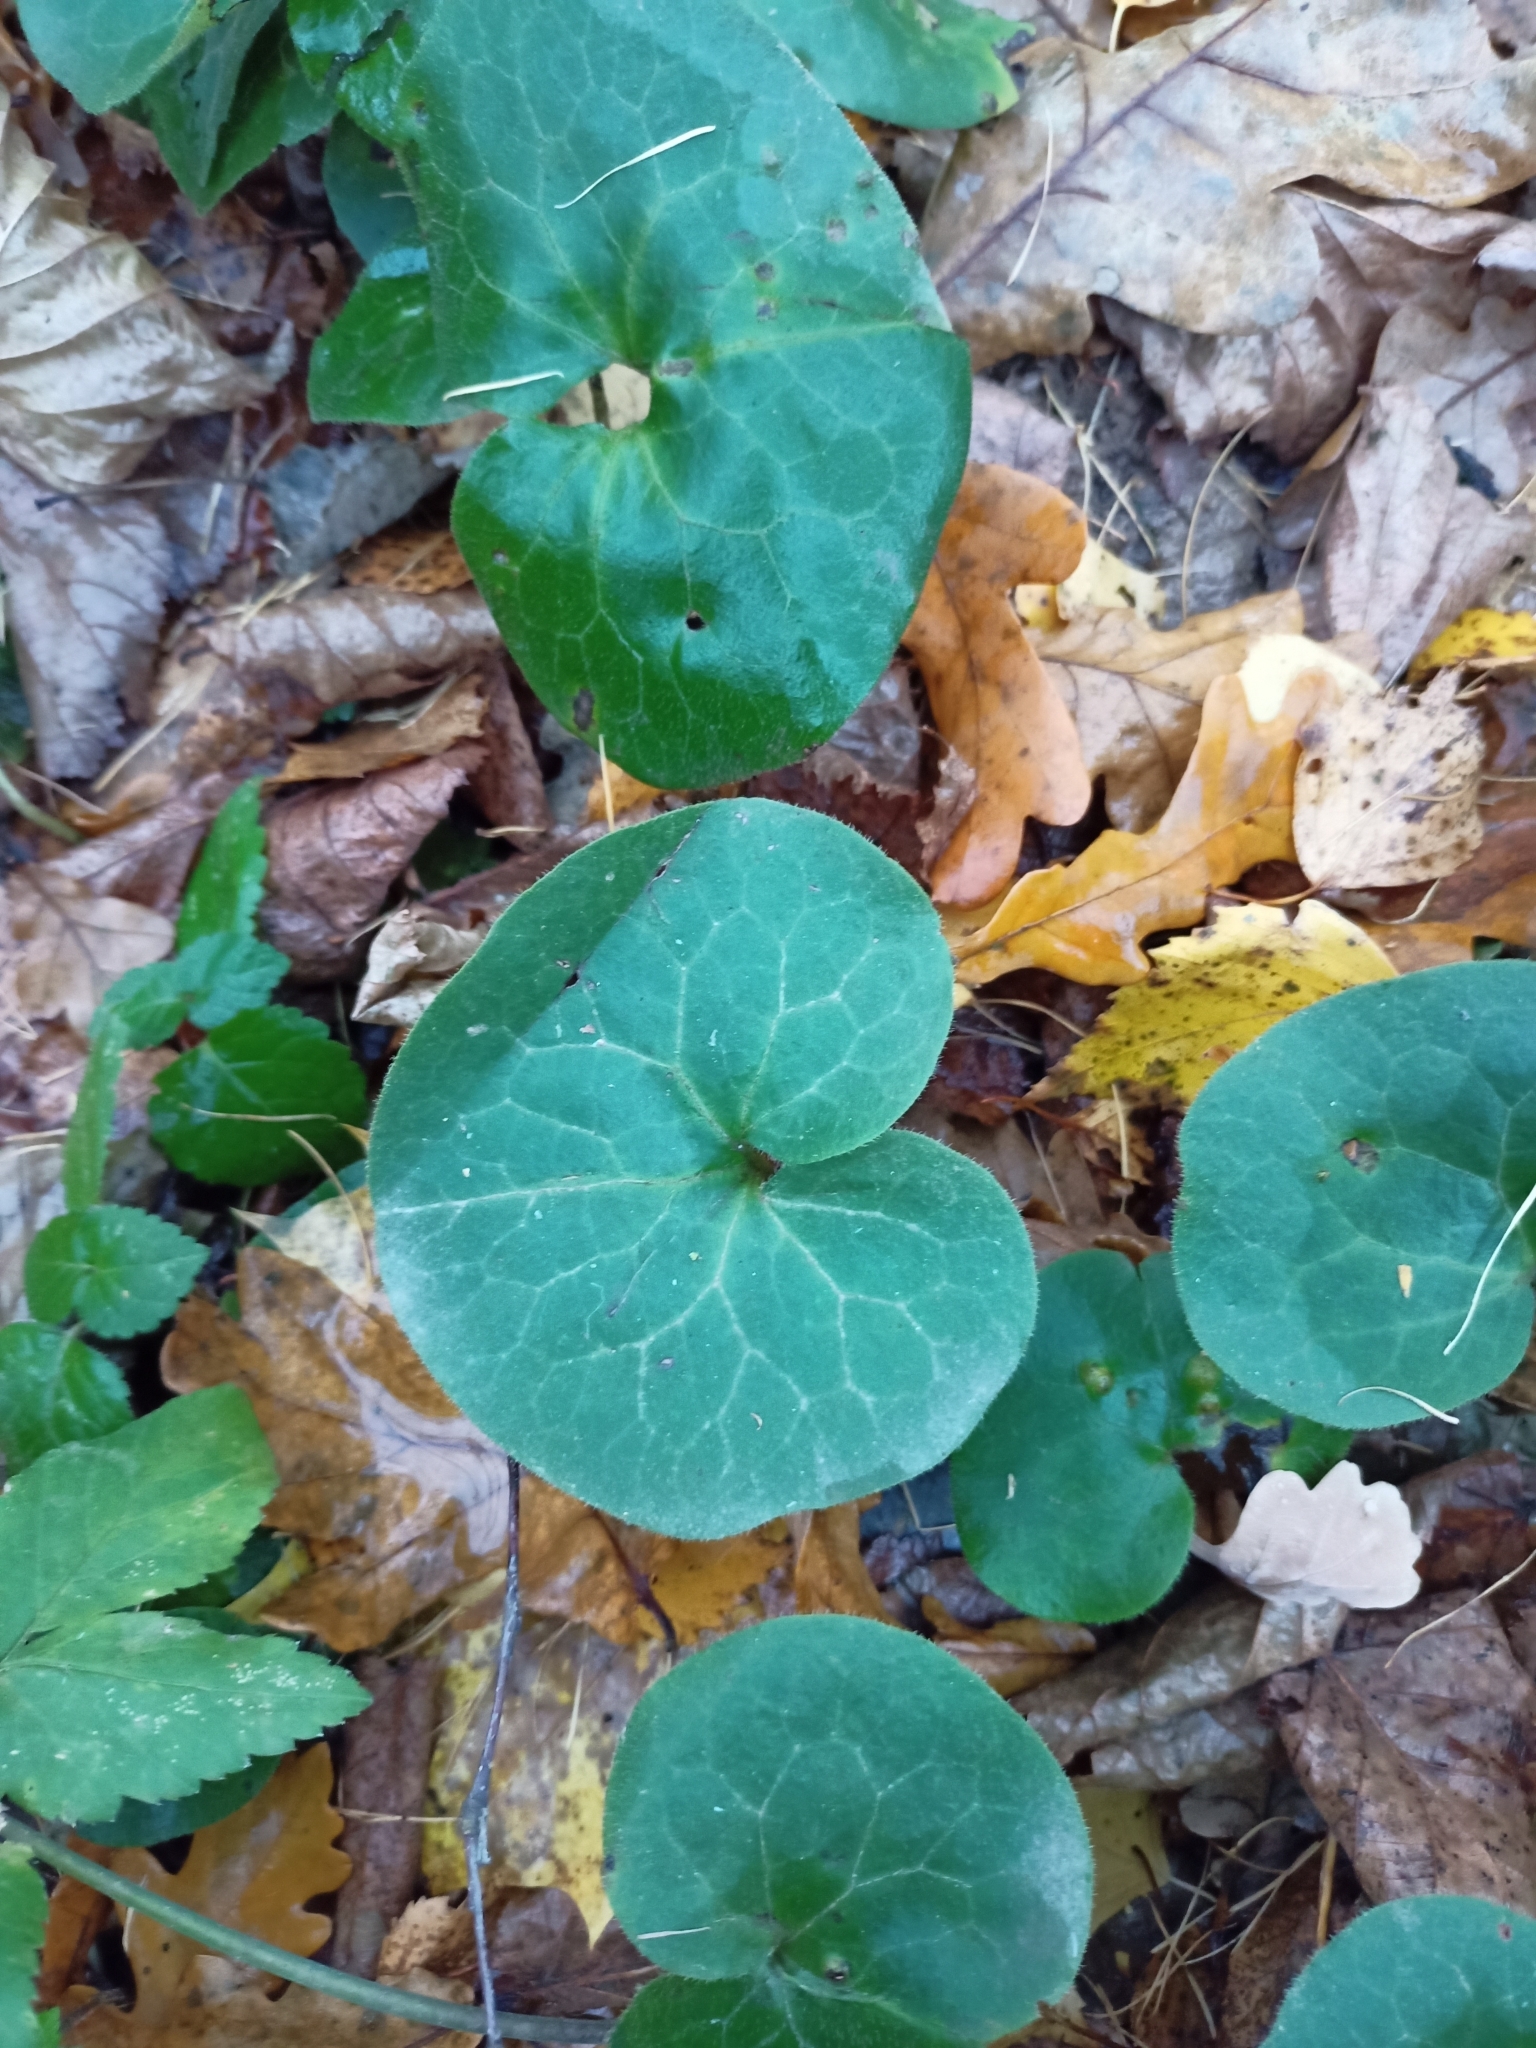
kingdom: Plantae
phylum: Tracheophyta
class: Magnoliopsida
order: Piperales
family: Aristolochiaceae
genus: Asarum
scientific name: Asarum europaeum
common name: Asarabacca
